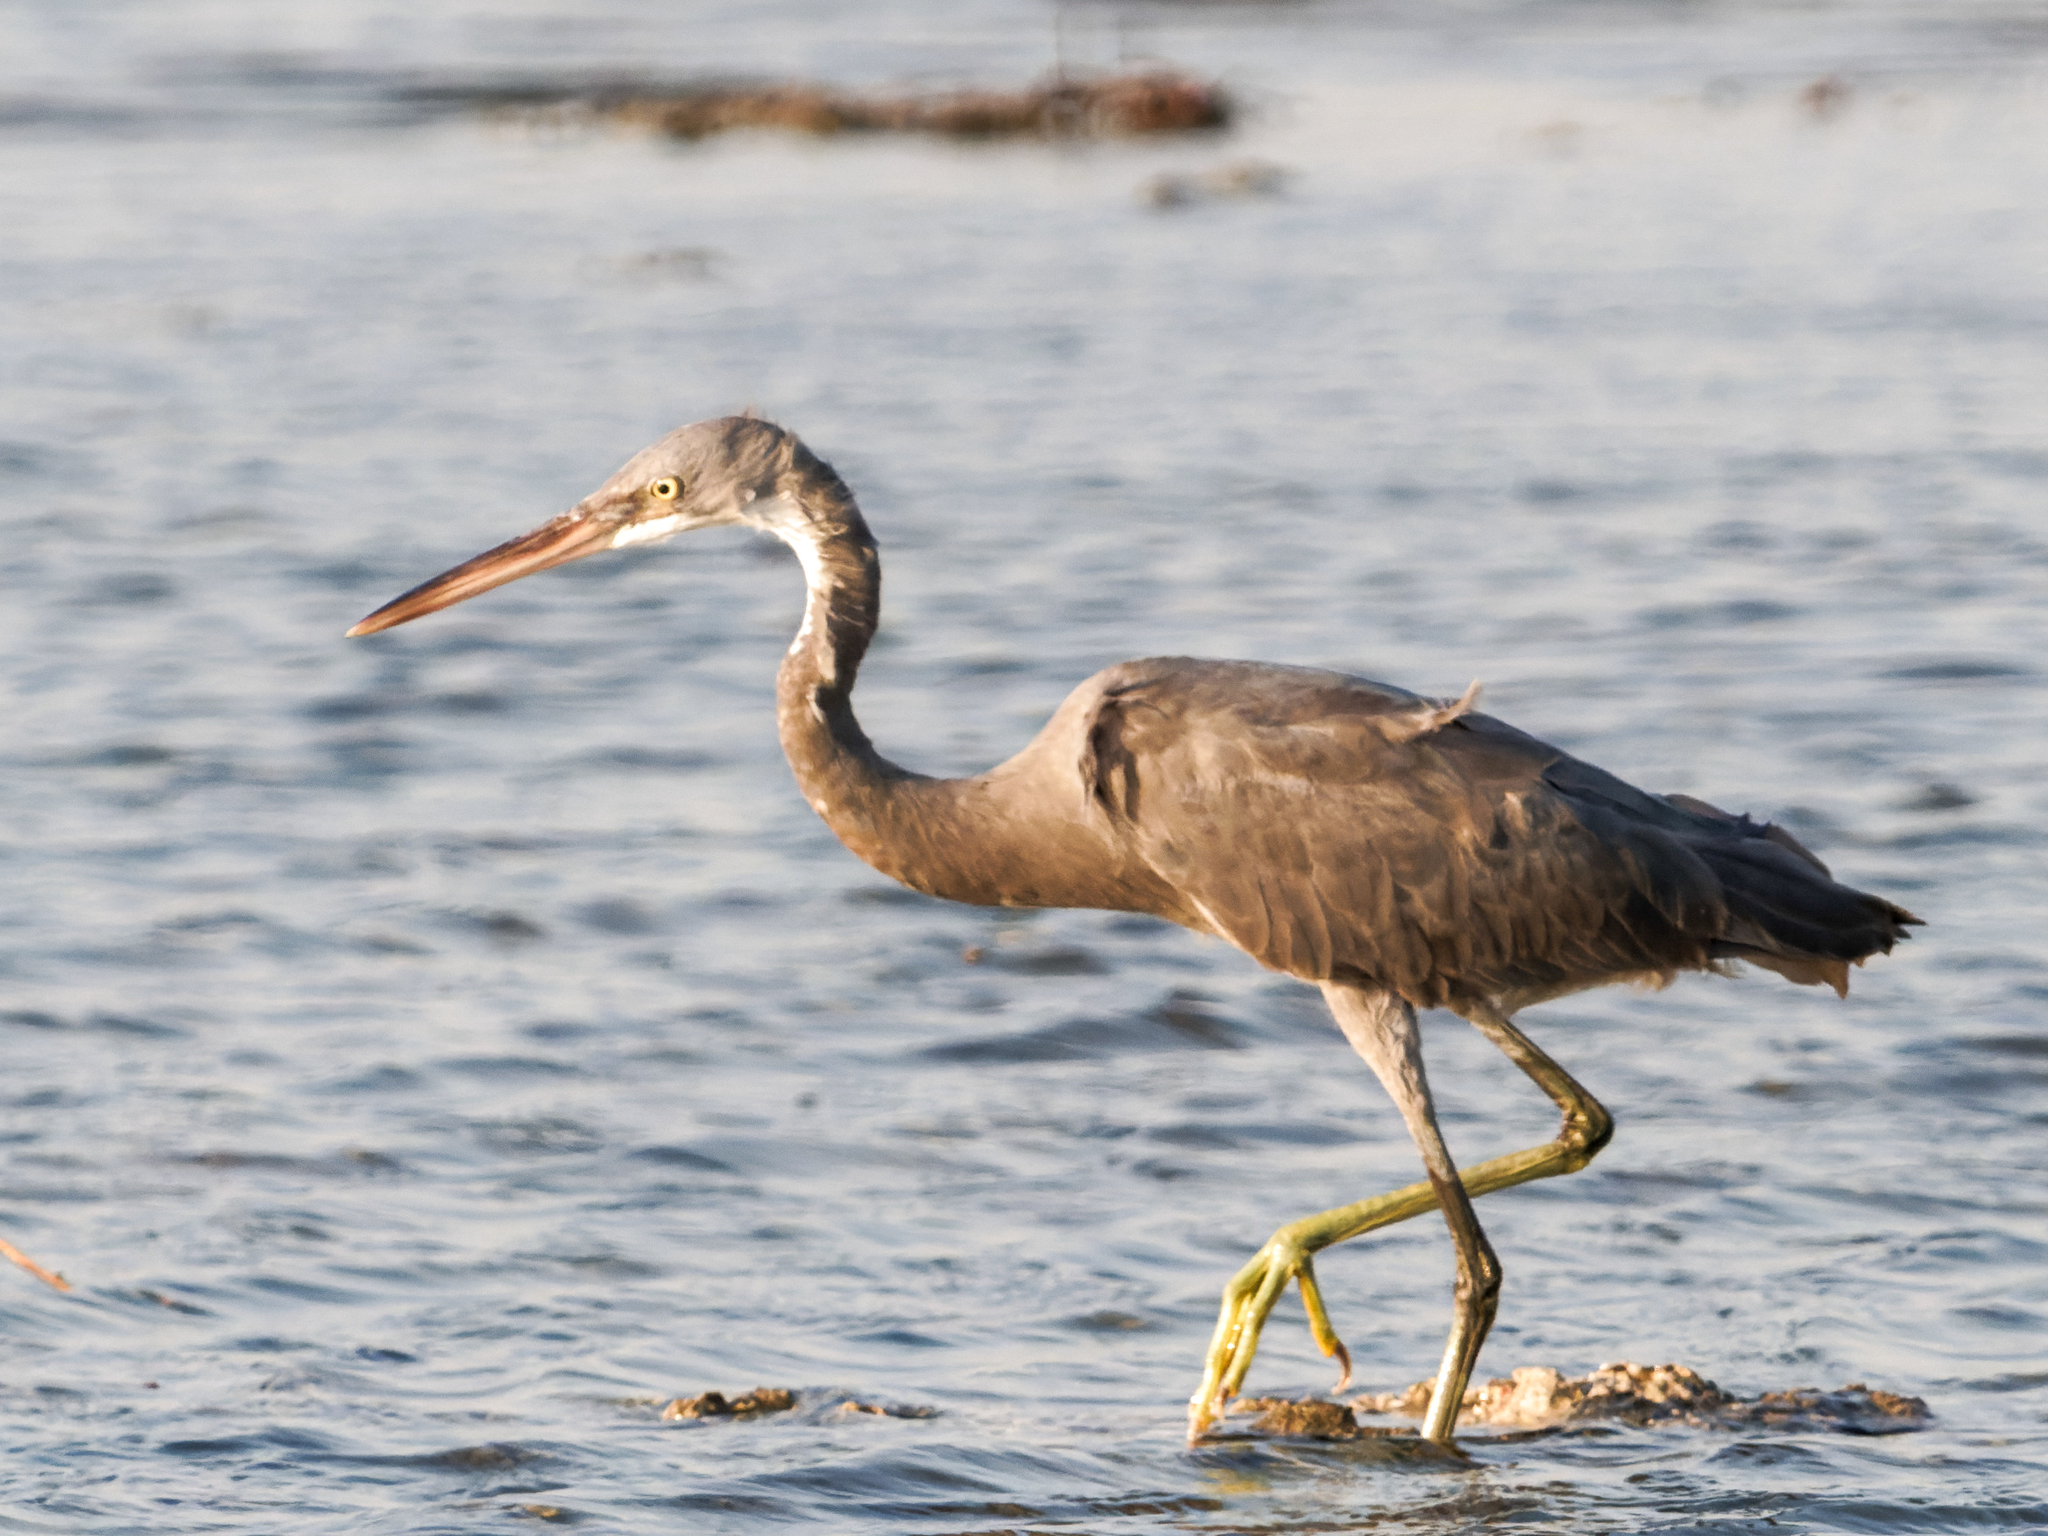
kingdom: Animalia
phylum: Chordata
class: Aves
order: Pelecaniformes
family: Ardeidae
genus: Egretta
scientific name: Egretta gularis
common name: Western reef-heron
